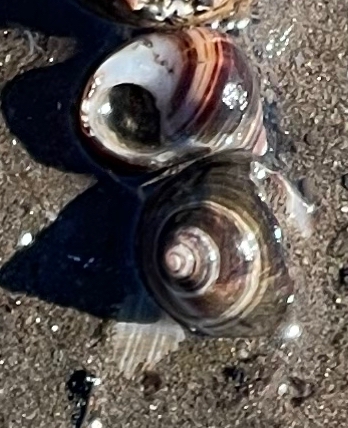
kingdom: Animalia
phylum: Mollusca
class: Gastropoda
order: Littorinimorpha
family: Littorinidae
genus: Littorina
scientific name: Littorina littorea
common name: Common periwinkle
